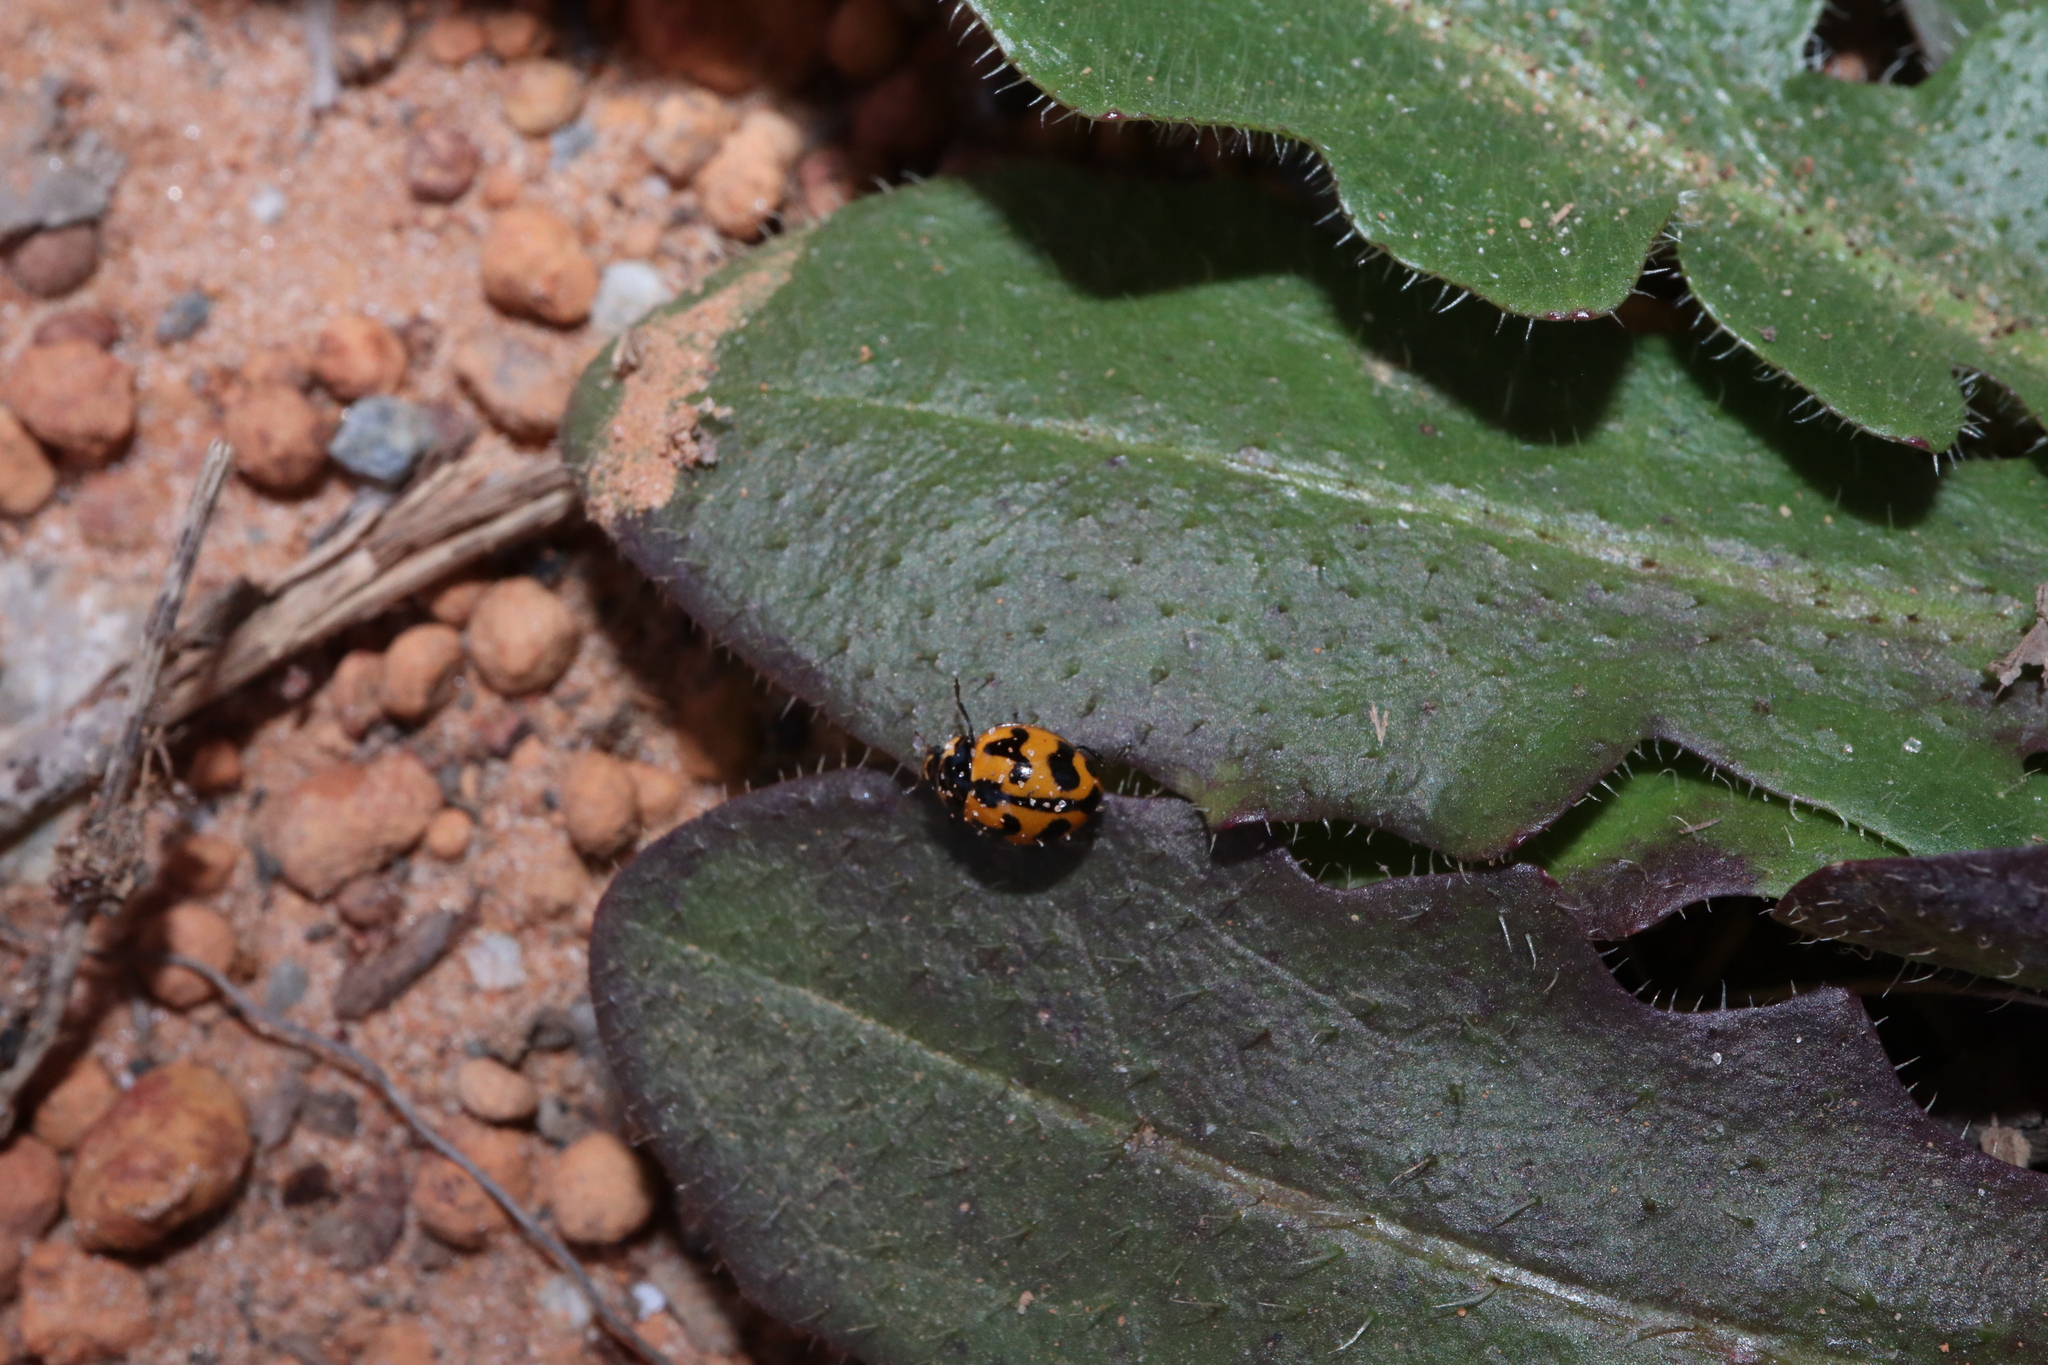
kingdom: Animalia
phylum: Arthropoda
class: Insecta
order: Coleoptera
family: Coccinellidae
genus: Coccinella
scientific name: Coccinella transversalis
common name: Transverse lady beetle
